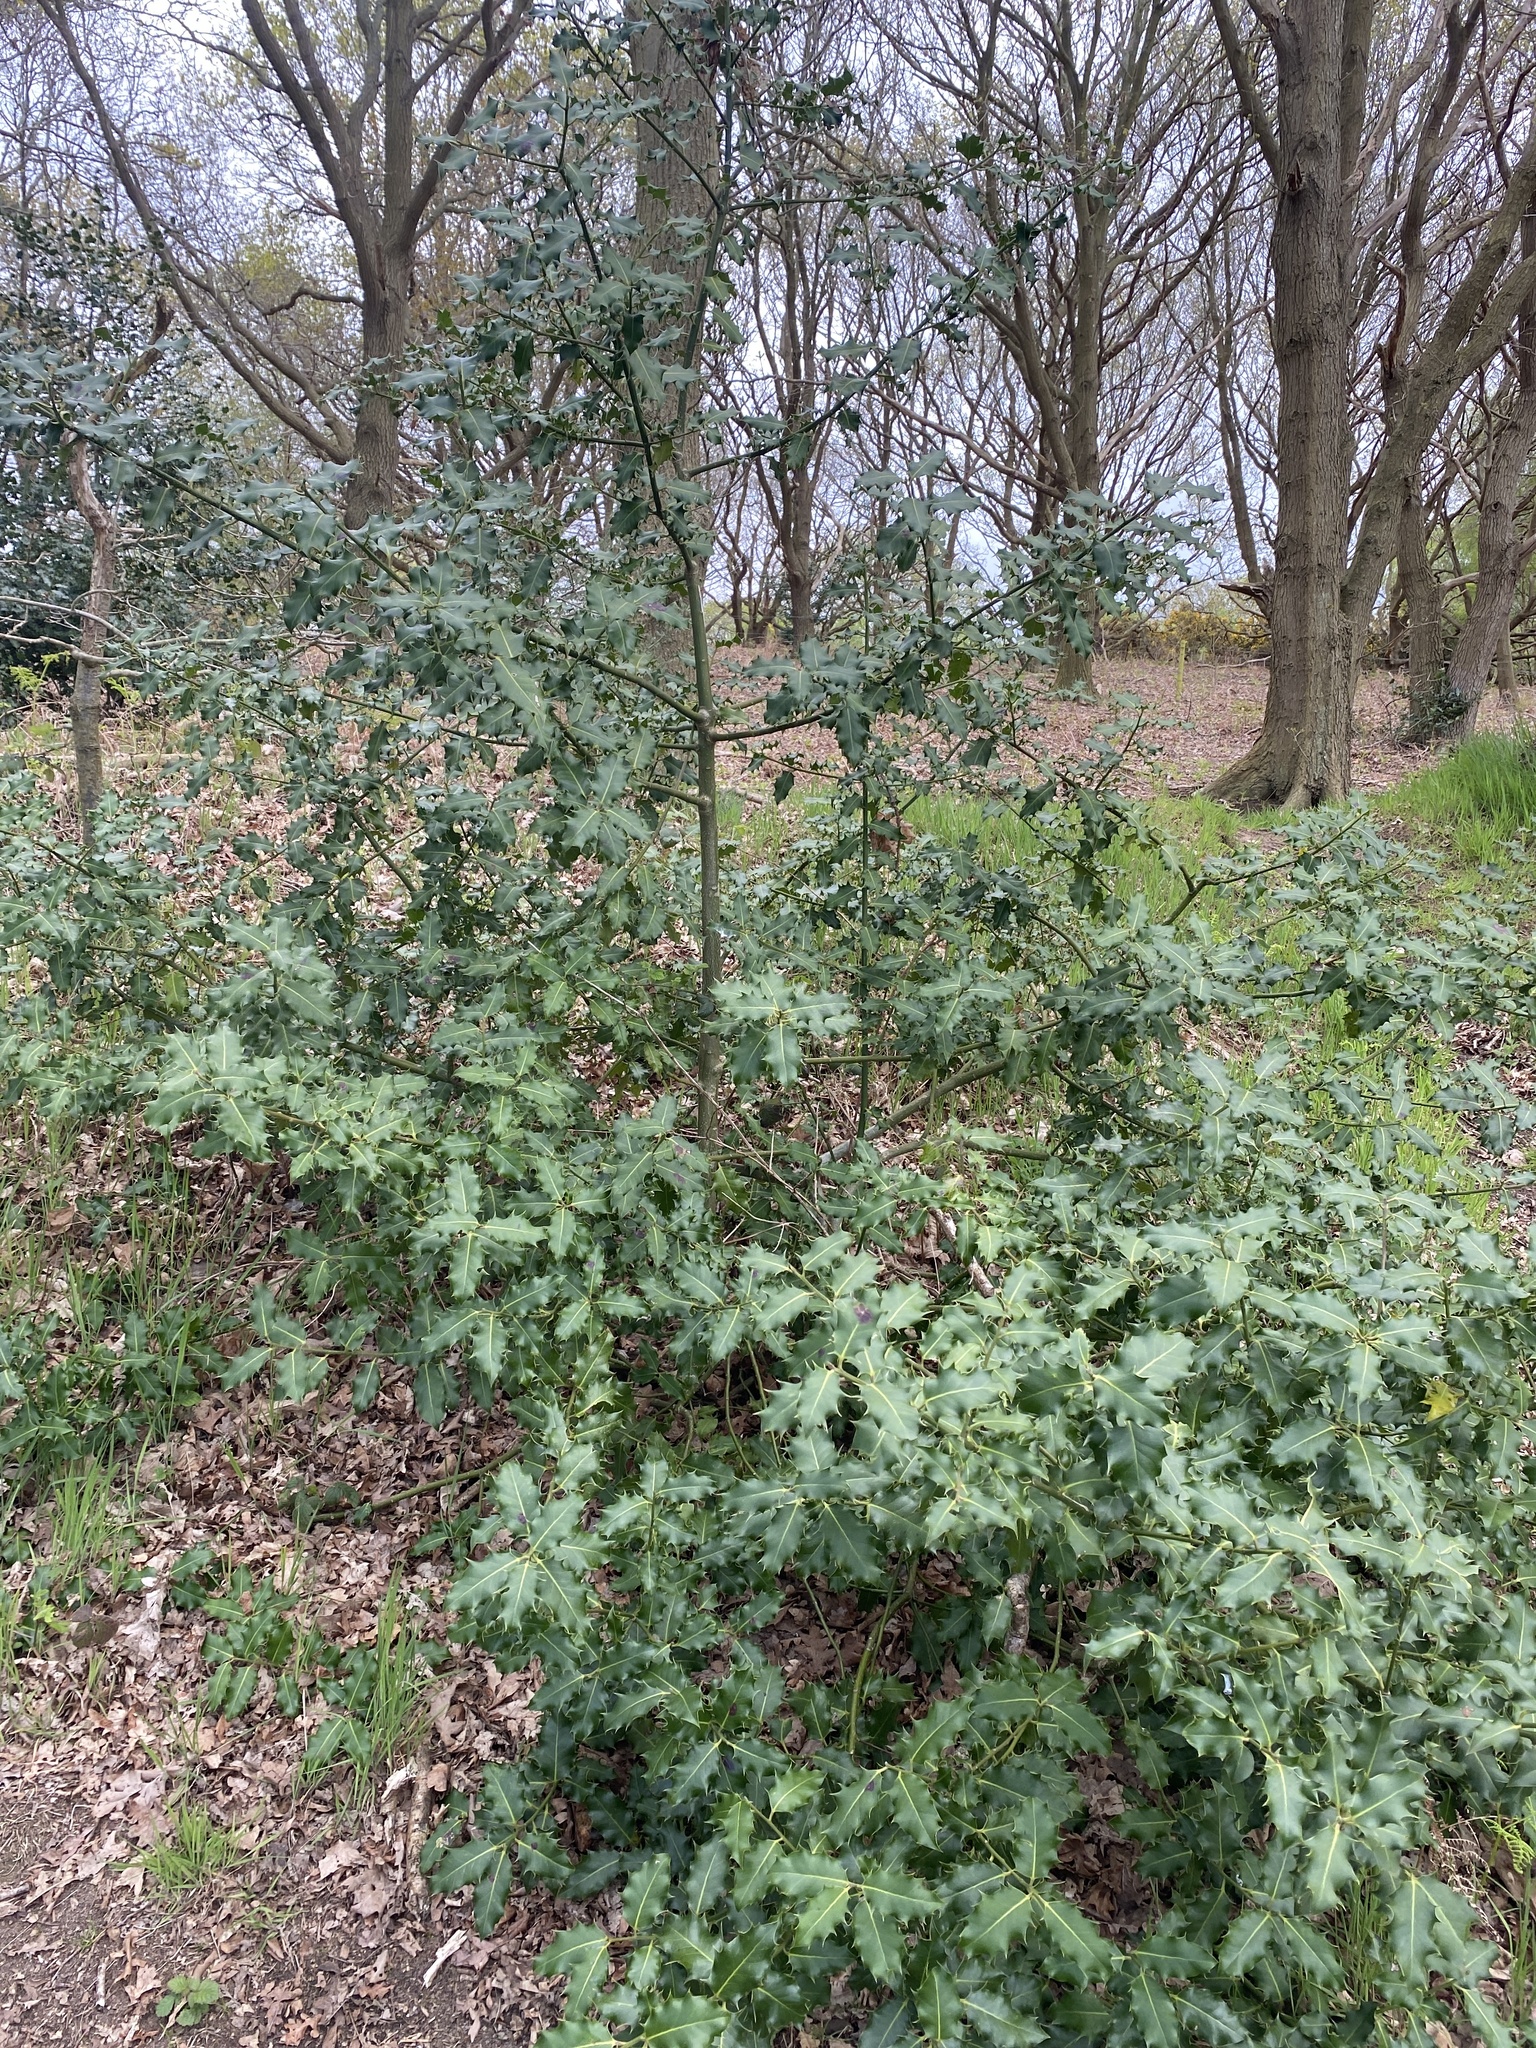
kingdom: Plantae
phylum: Tracheophyta
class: Magnoliopsida
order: Aquifoliales
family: Aquifoliaceae
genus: Ilex
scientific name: Ilex aquifolium
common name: English holly
